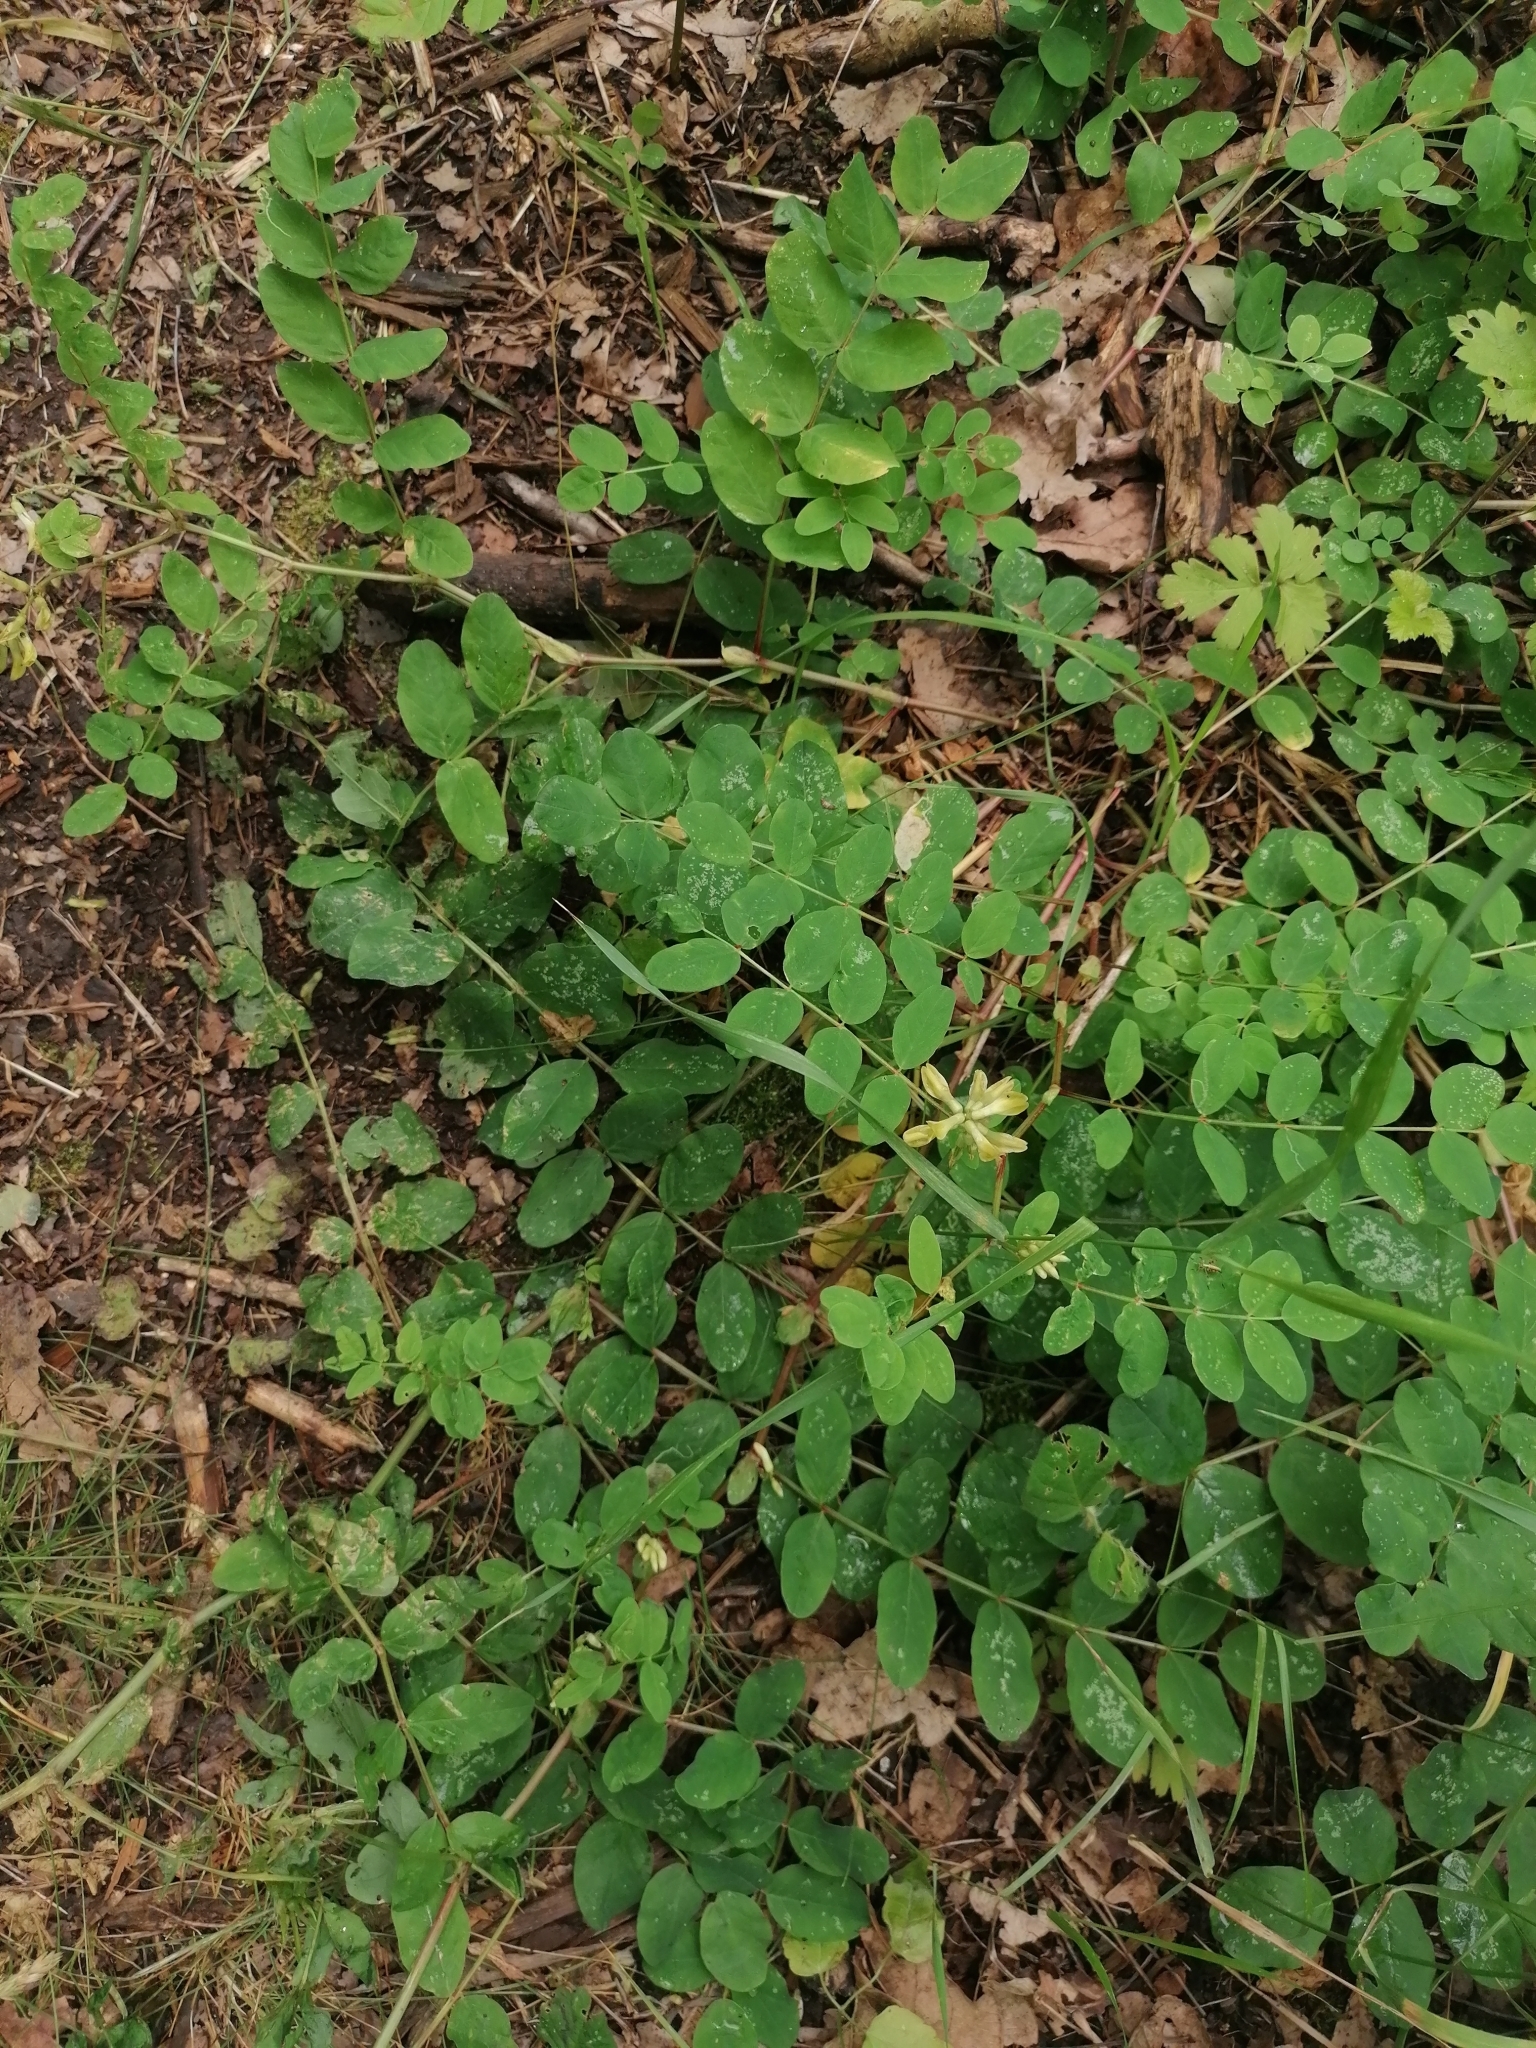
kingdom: Plantae
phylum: Tracheophyta
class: Magnoliopsida
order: Fabales
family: Fabaceae
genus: Astragalus
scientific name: Astragalus glycyphyllos
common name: Wild liquorice
